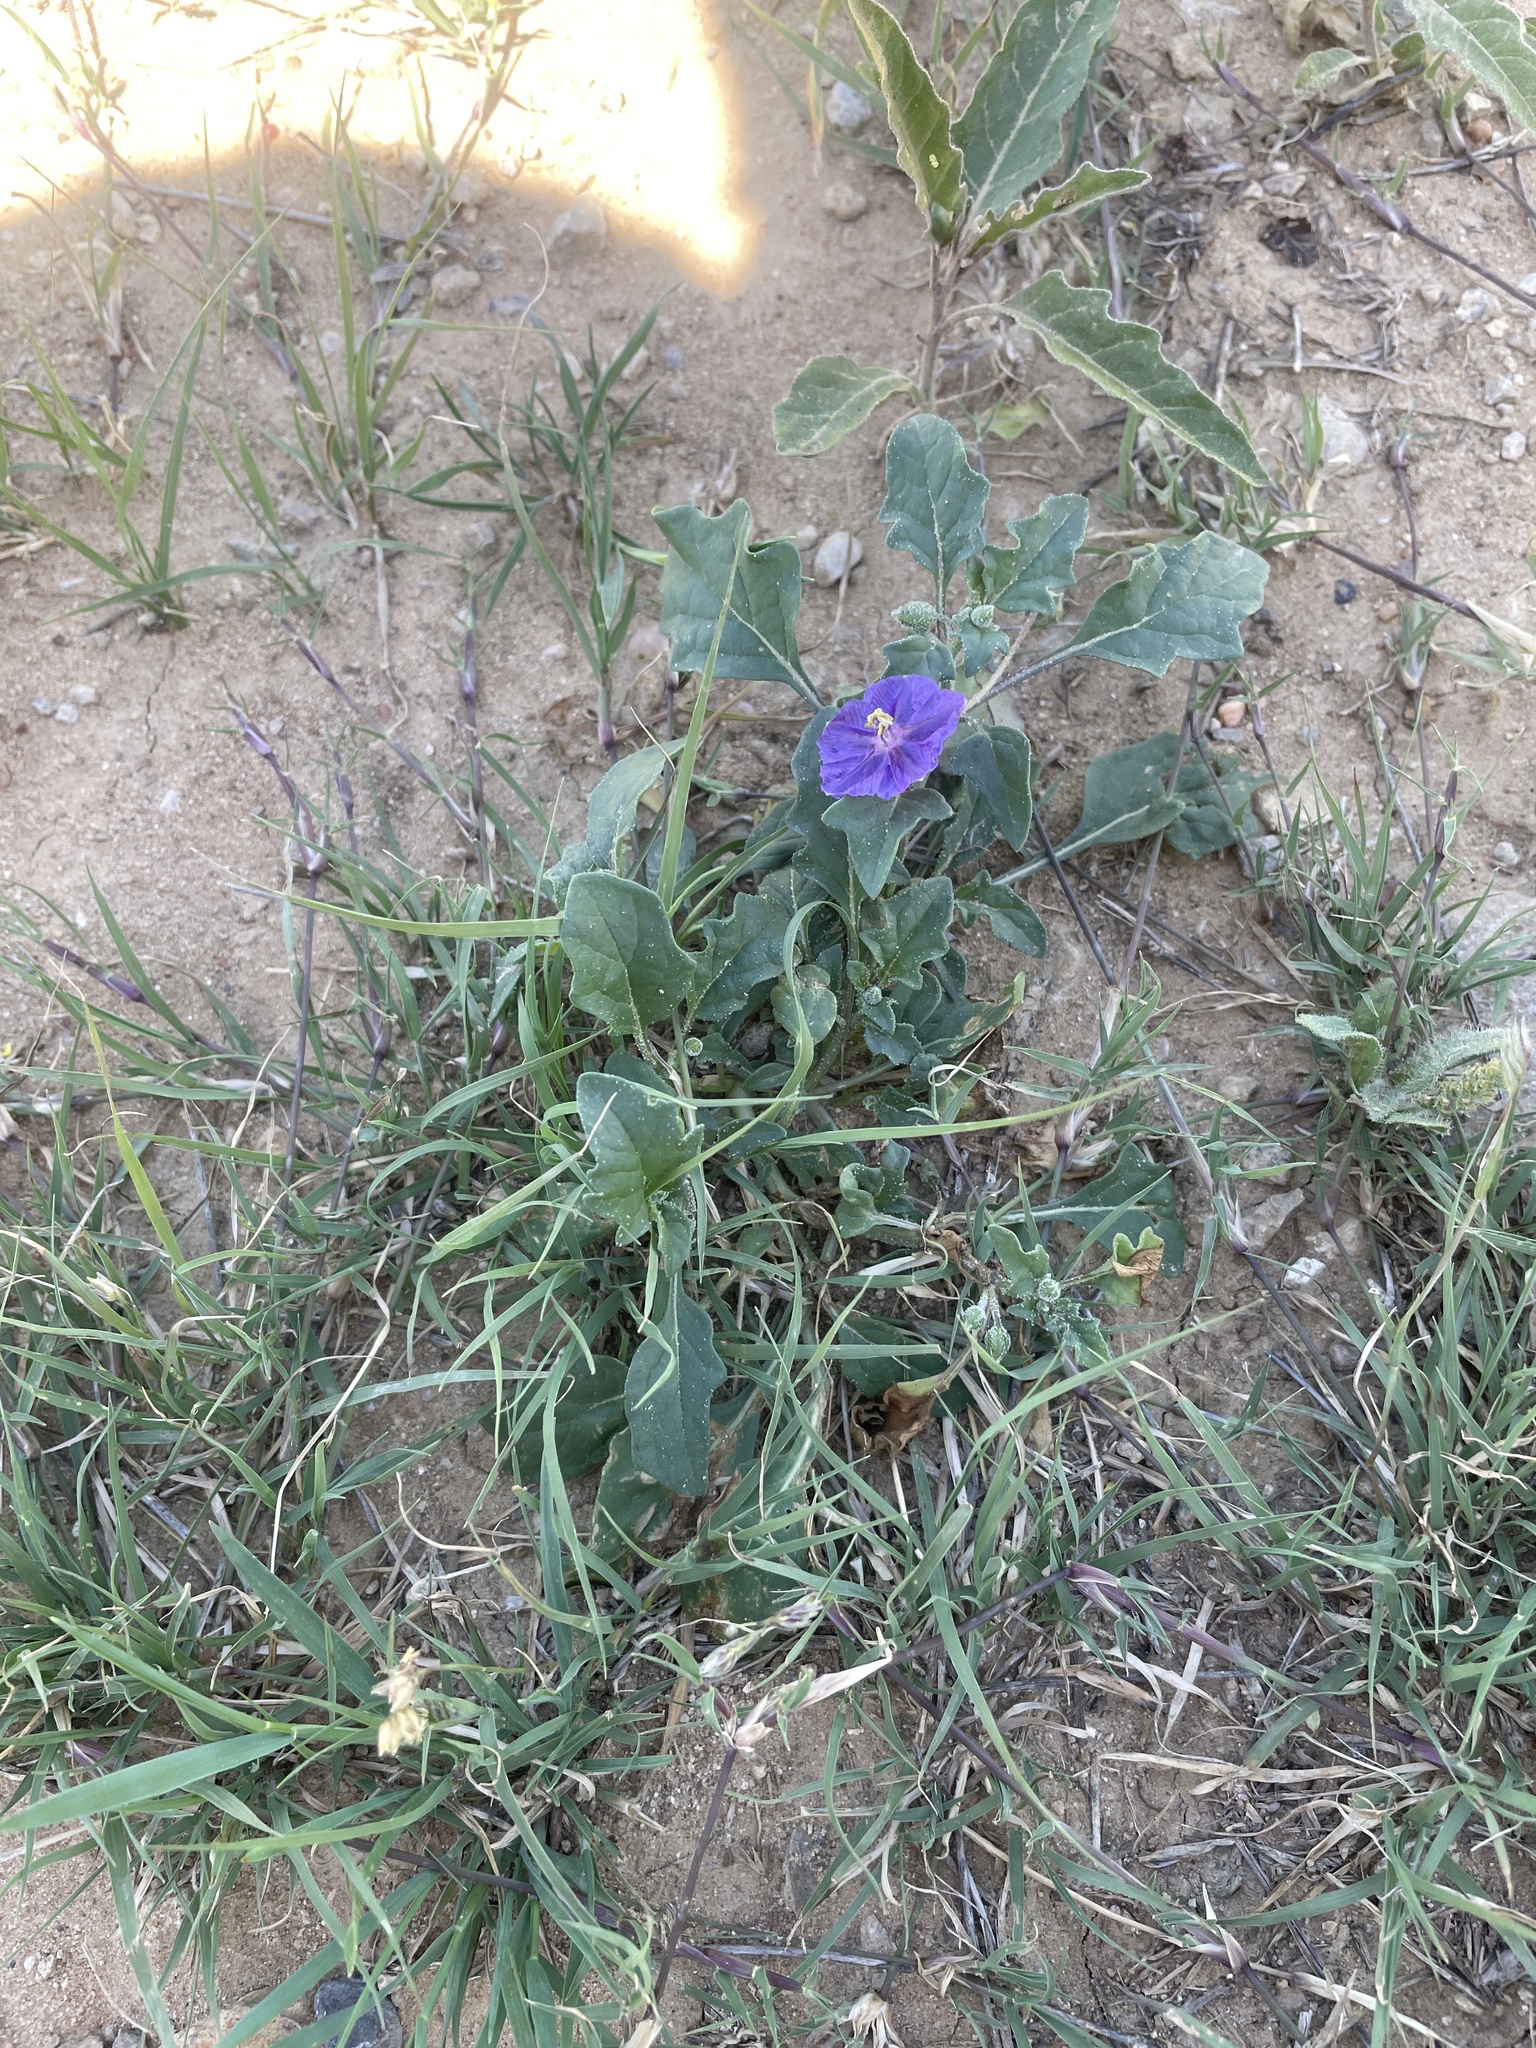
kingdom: Plantae
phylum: Tracheophyta
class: Magnoliopsida
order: Solanales
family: Solanaceae
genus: Quincula
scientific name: Quincula lobata
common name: Purple-ground-cherry
